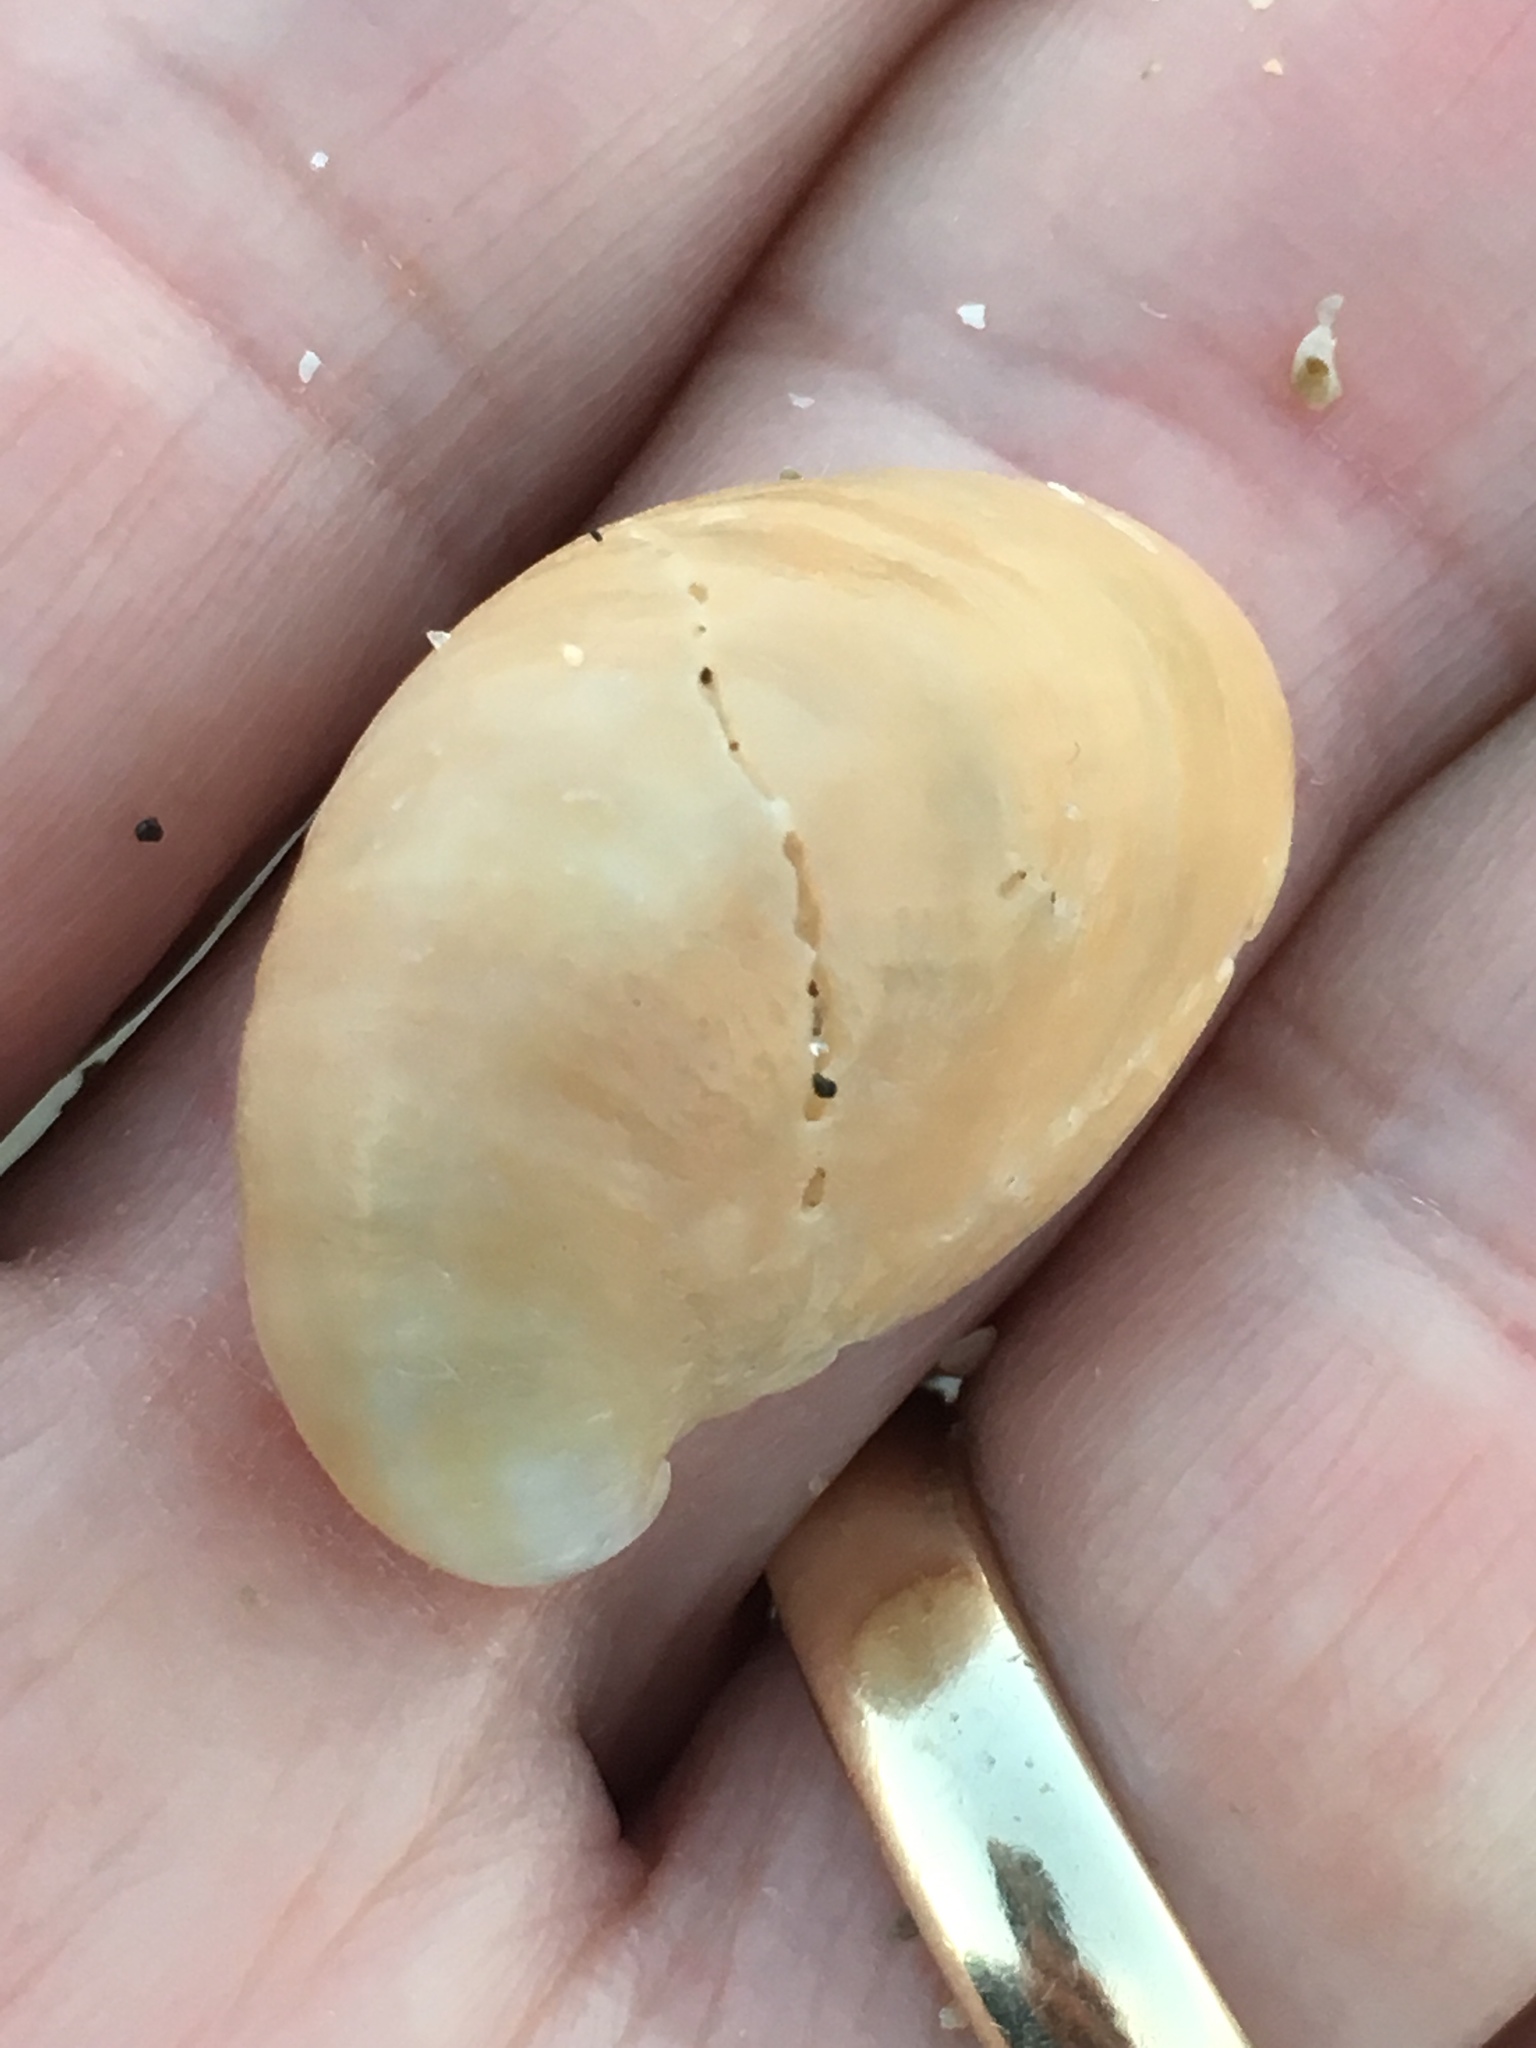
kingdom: Animalia
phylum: Mollusca
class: Gastropoda
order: Littorinimorpha
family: Calyptraeidae
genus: Crepidula
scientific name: Crepidula fornicata
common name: Slipper limpet
